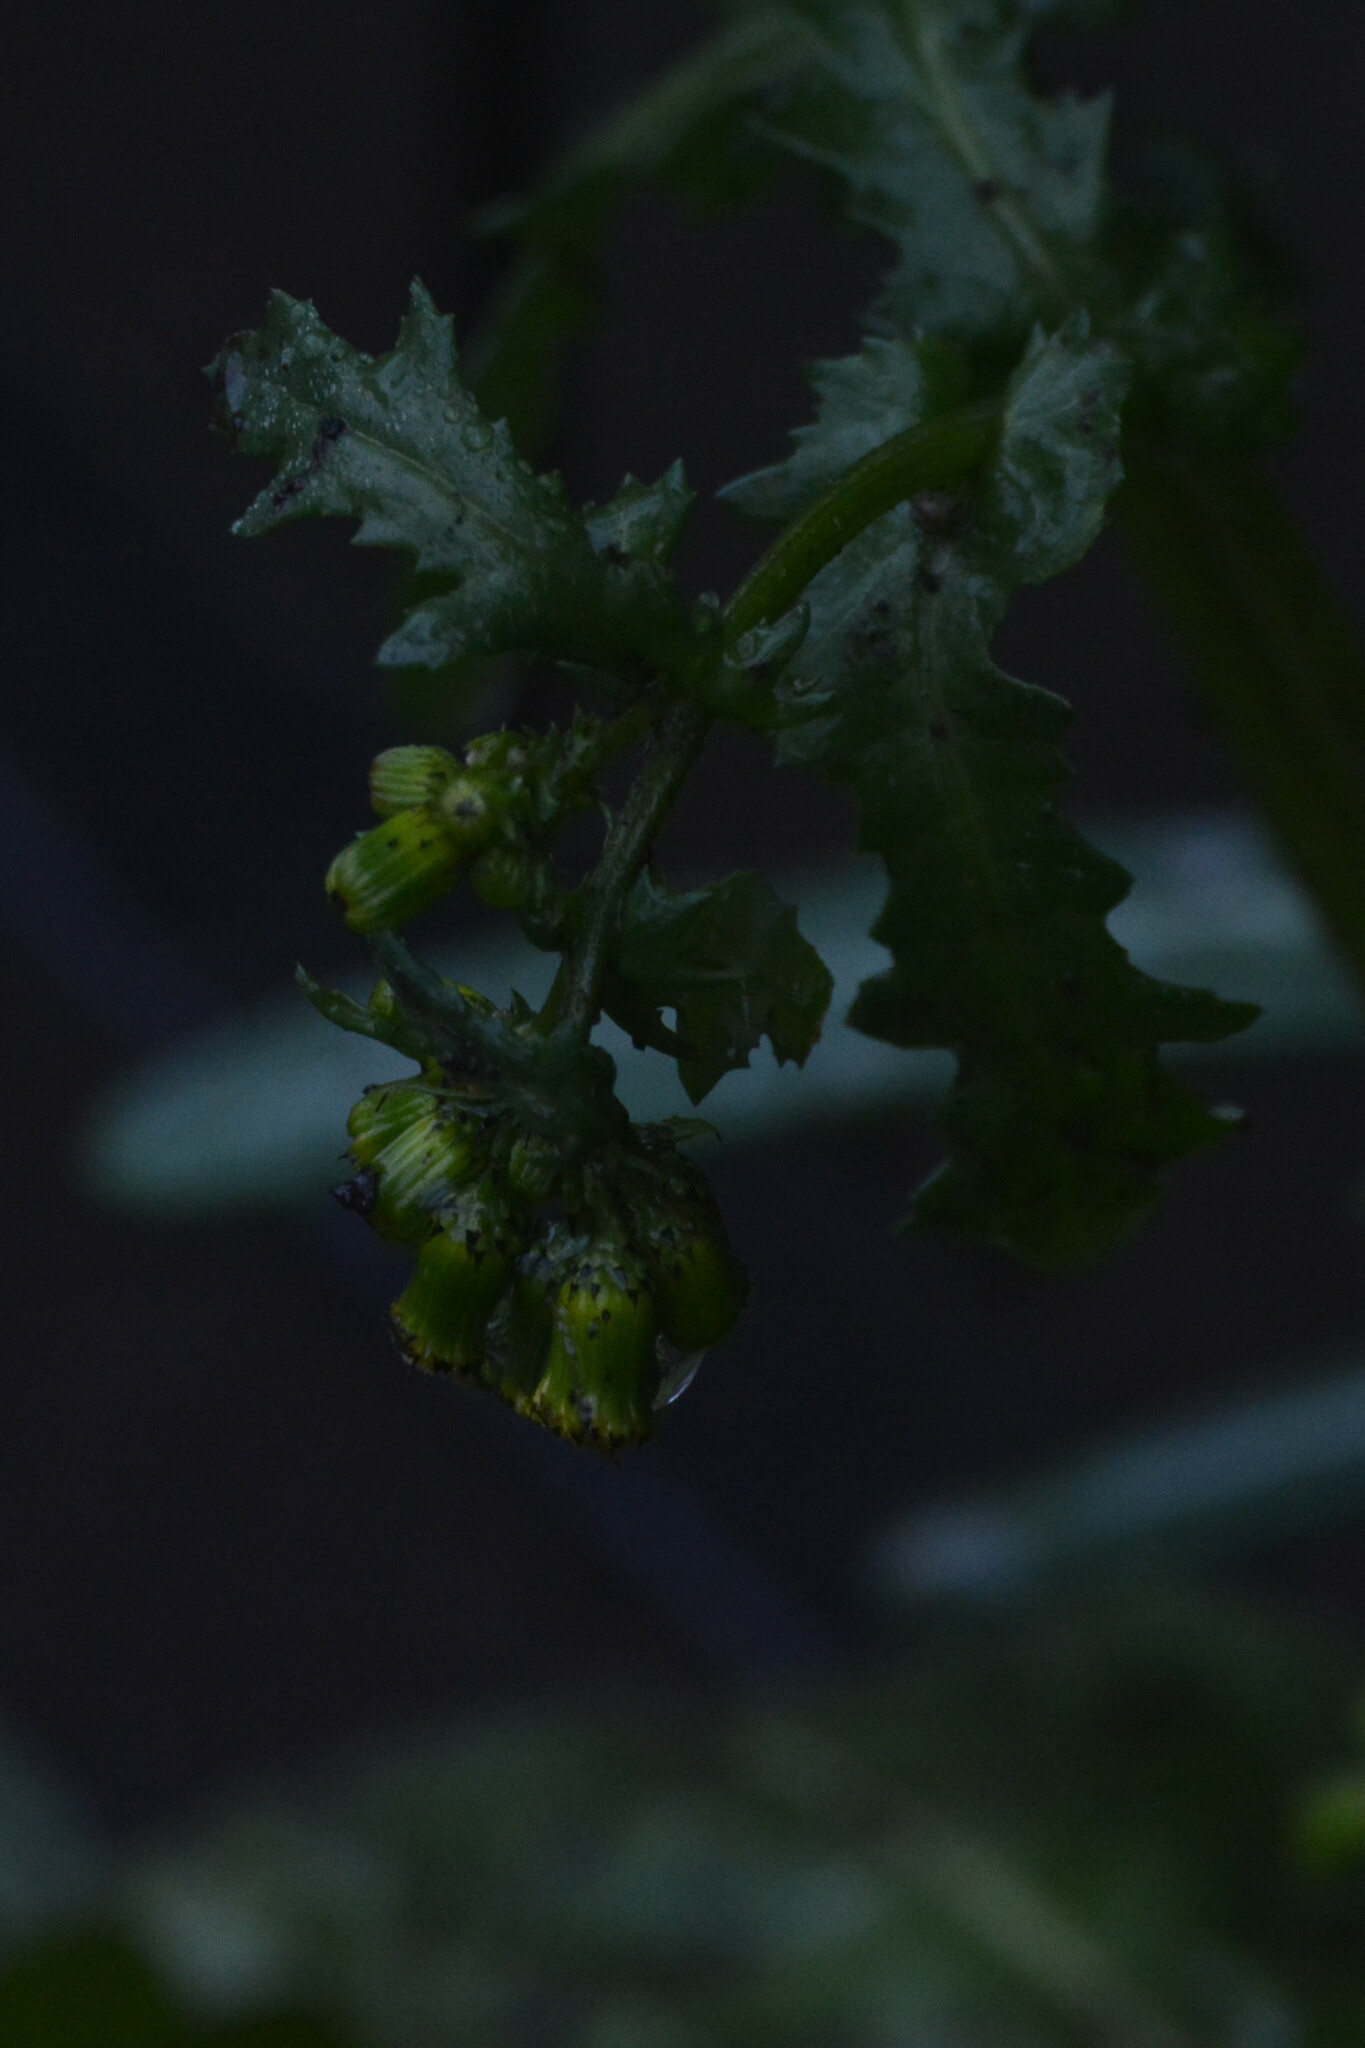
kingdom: Plantae
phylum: Tracheophyta
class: Magnoliopsida
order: Asterales
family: Asteraceae
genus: Senecio
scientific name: Senecio vulgaris
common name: Old-man-in-the-spring
